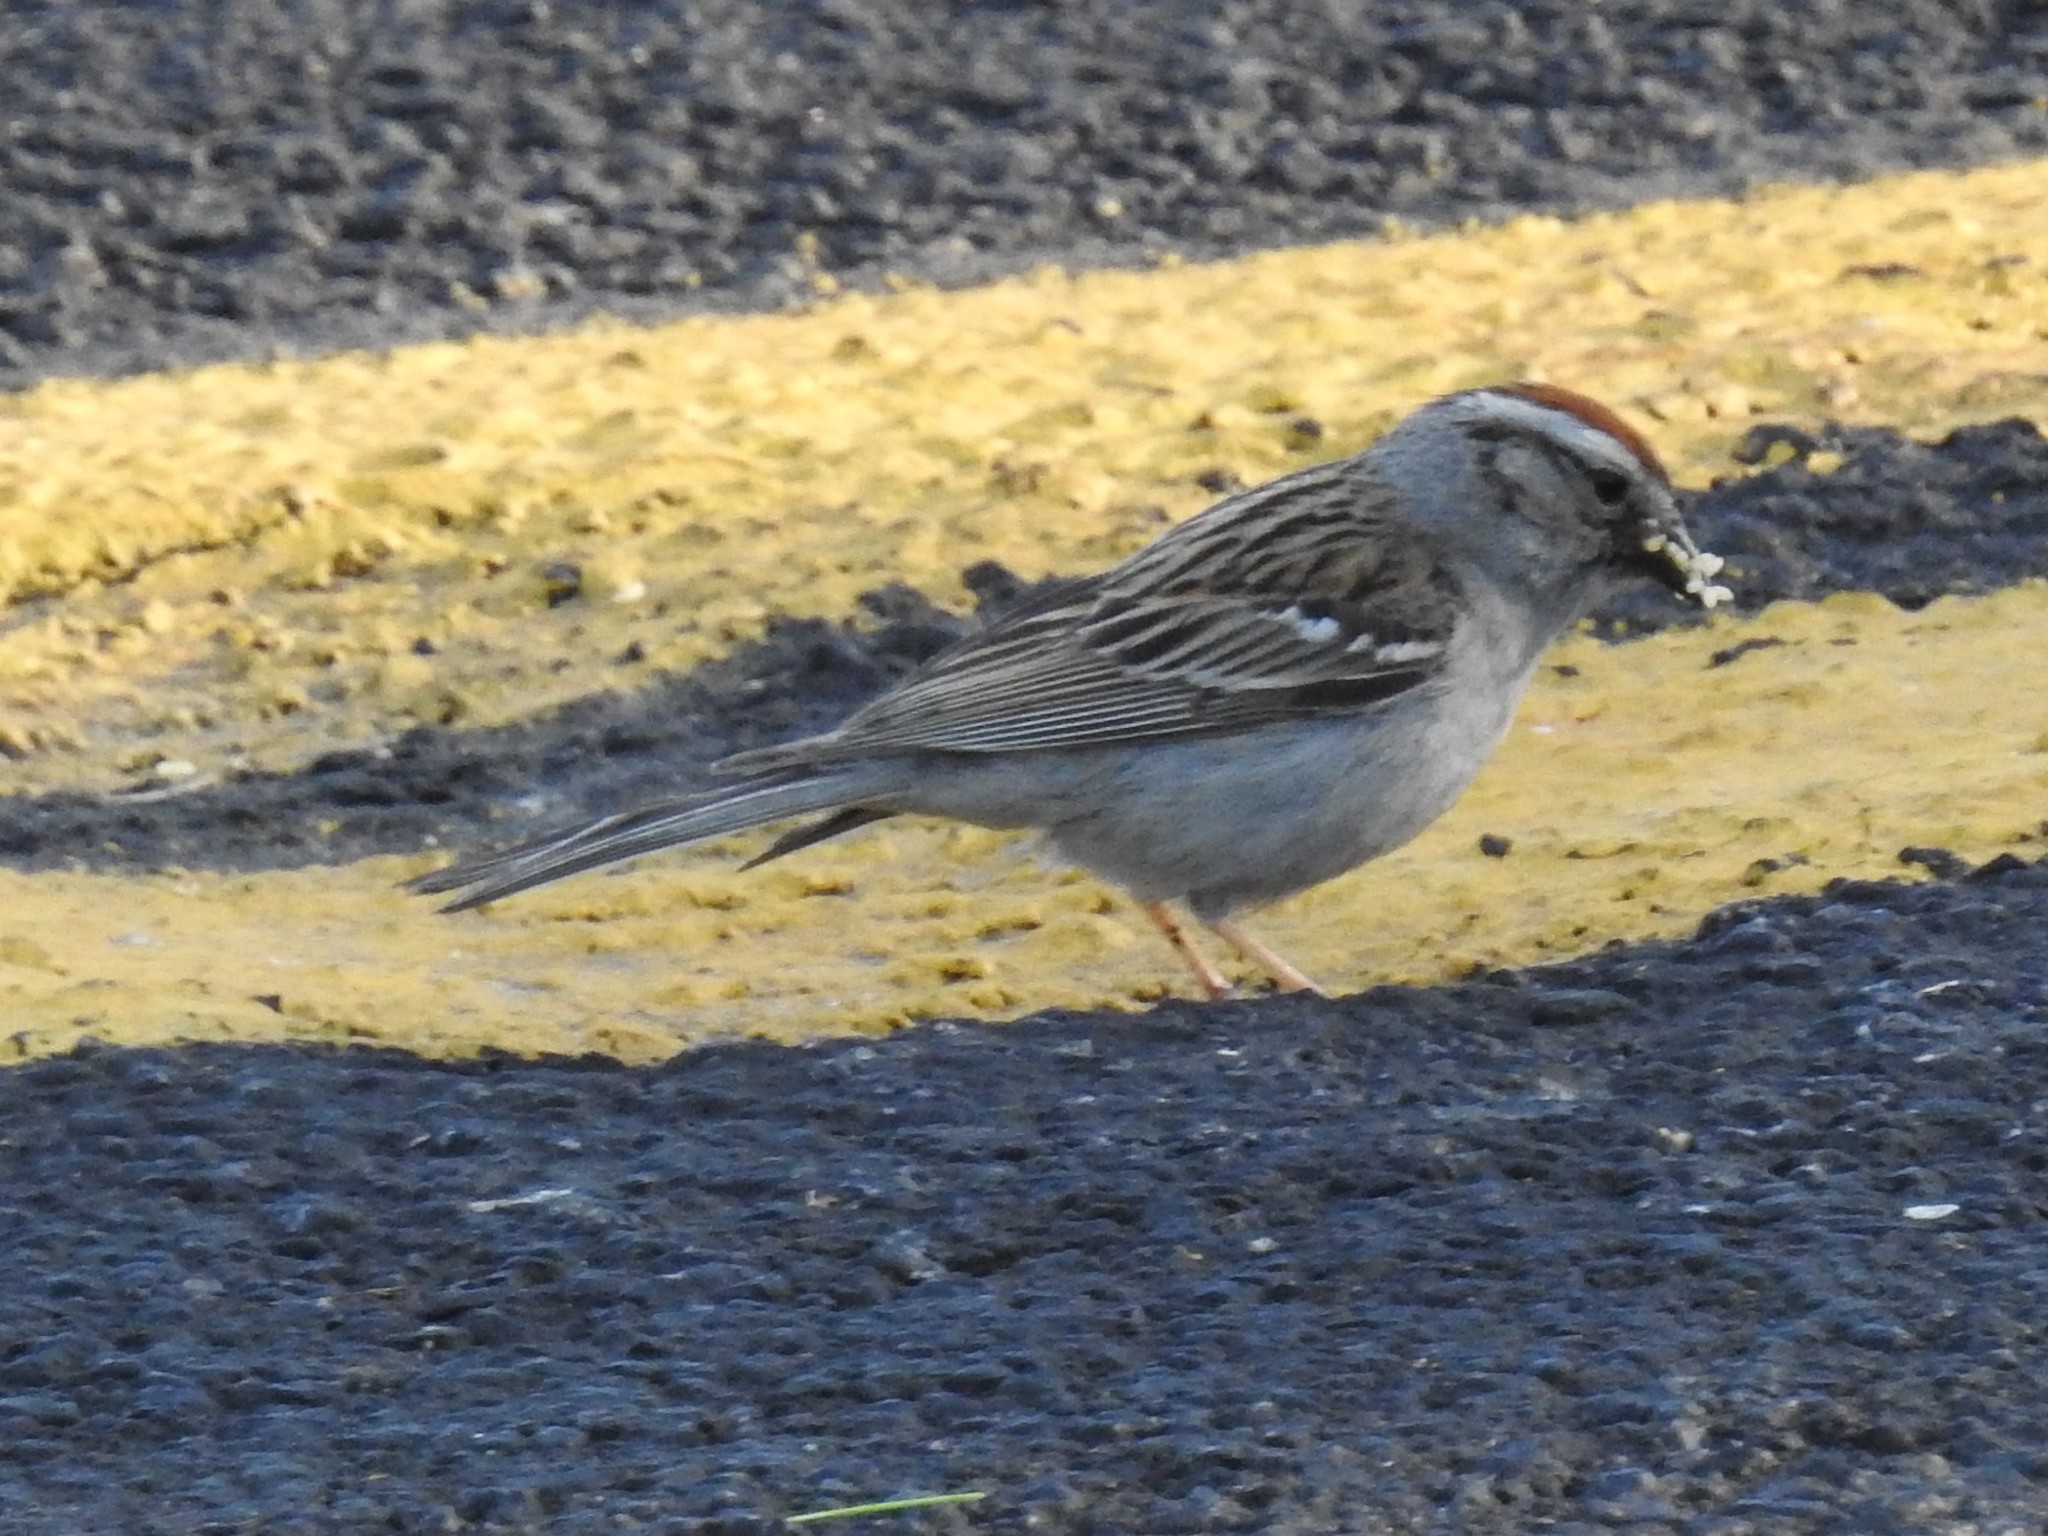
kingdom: Animalia
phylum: Chordata
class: Aves
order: Passeriformes
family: Passerellidae
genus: Spizella
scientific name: Spizella passerina
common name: Chipping sparrow
